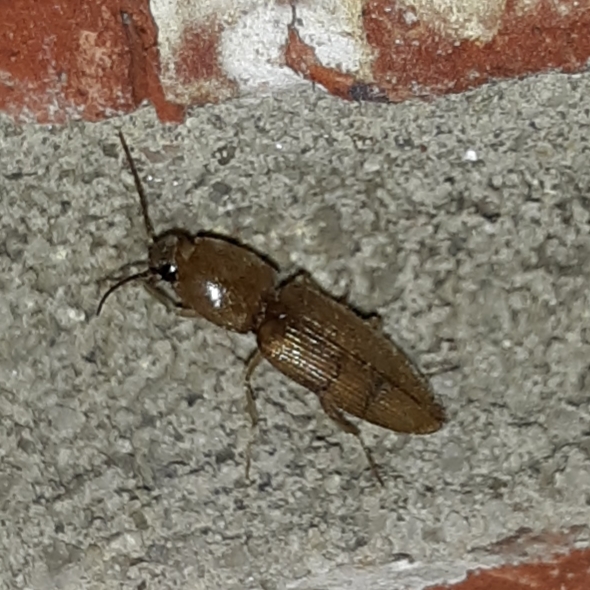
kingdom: Animalia
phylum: Arthropoda
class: Insecta
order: Coleoptera
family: Elateridae
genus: Monocrepidius
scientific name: Monocrepidius scissus
